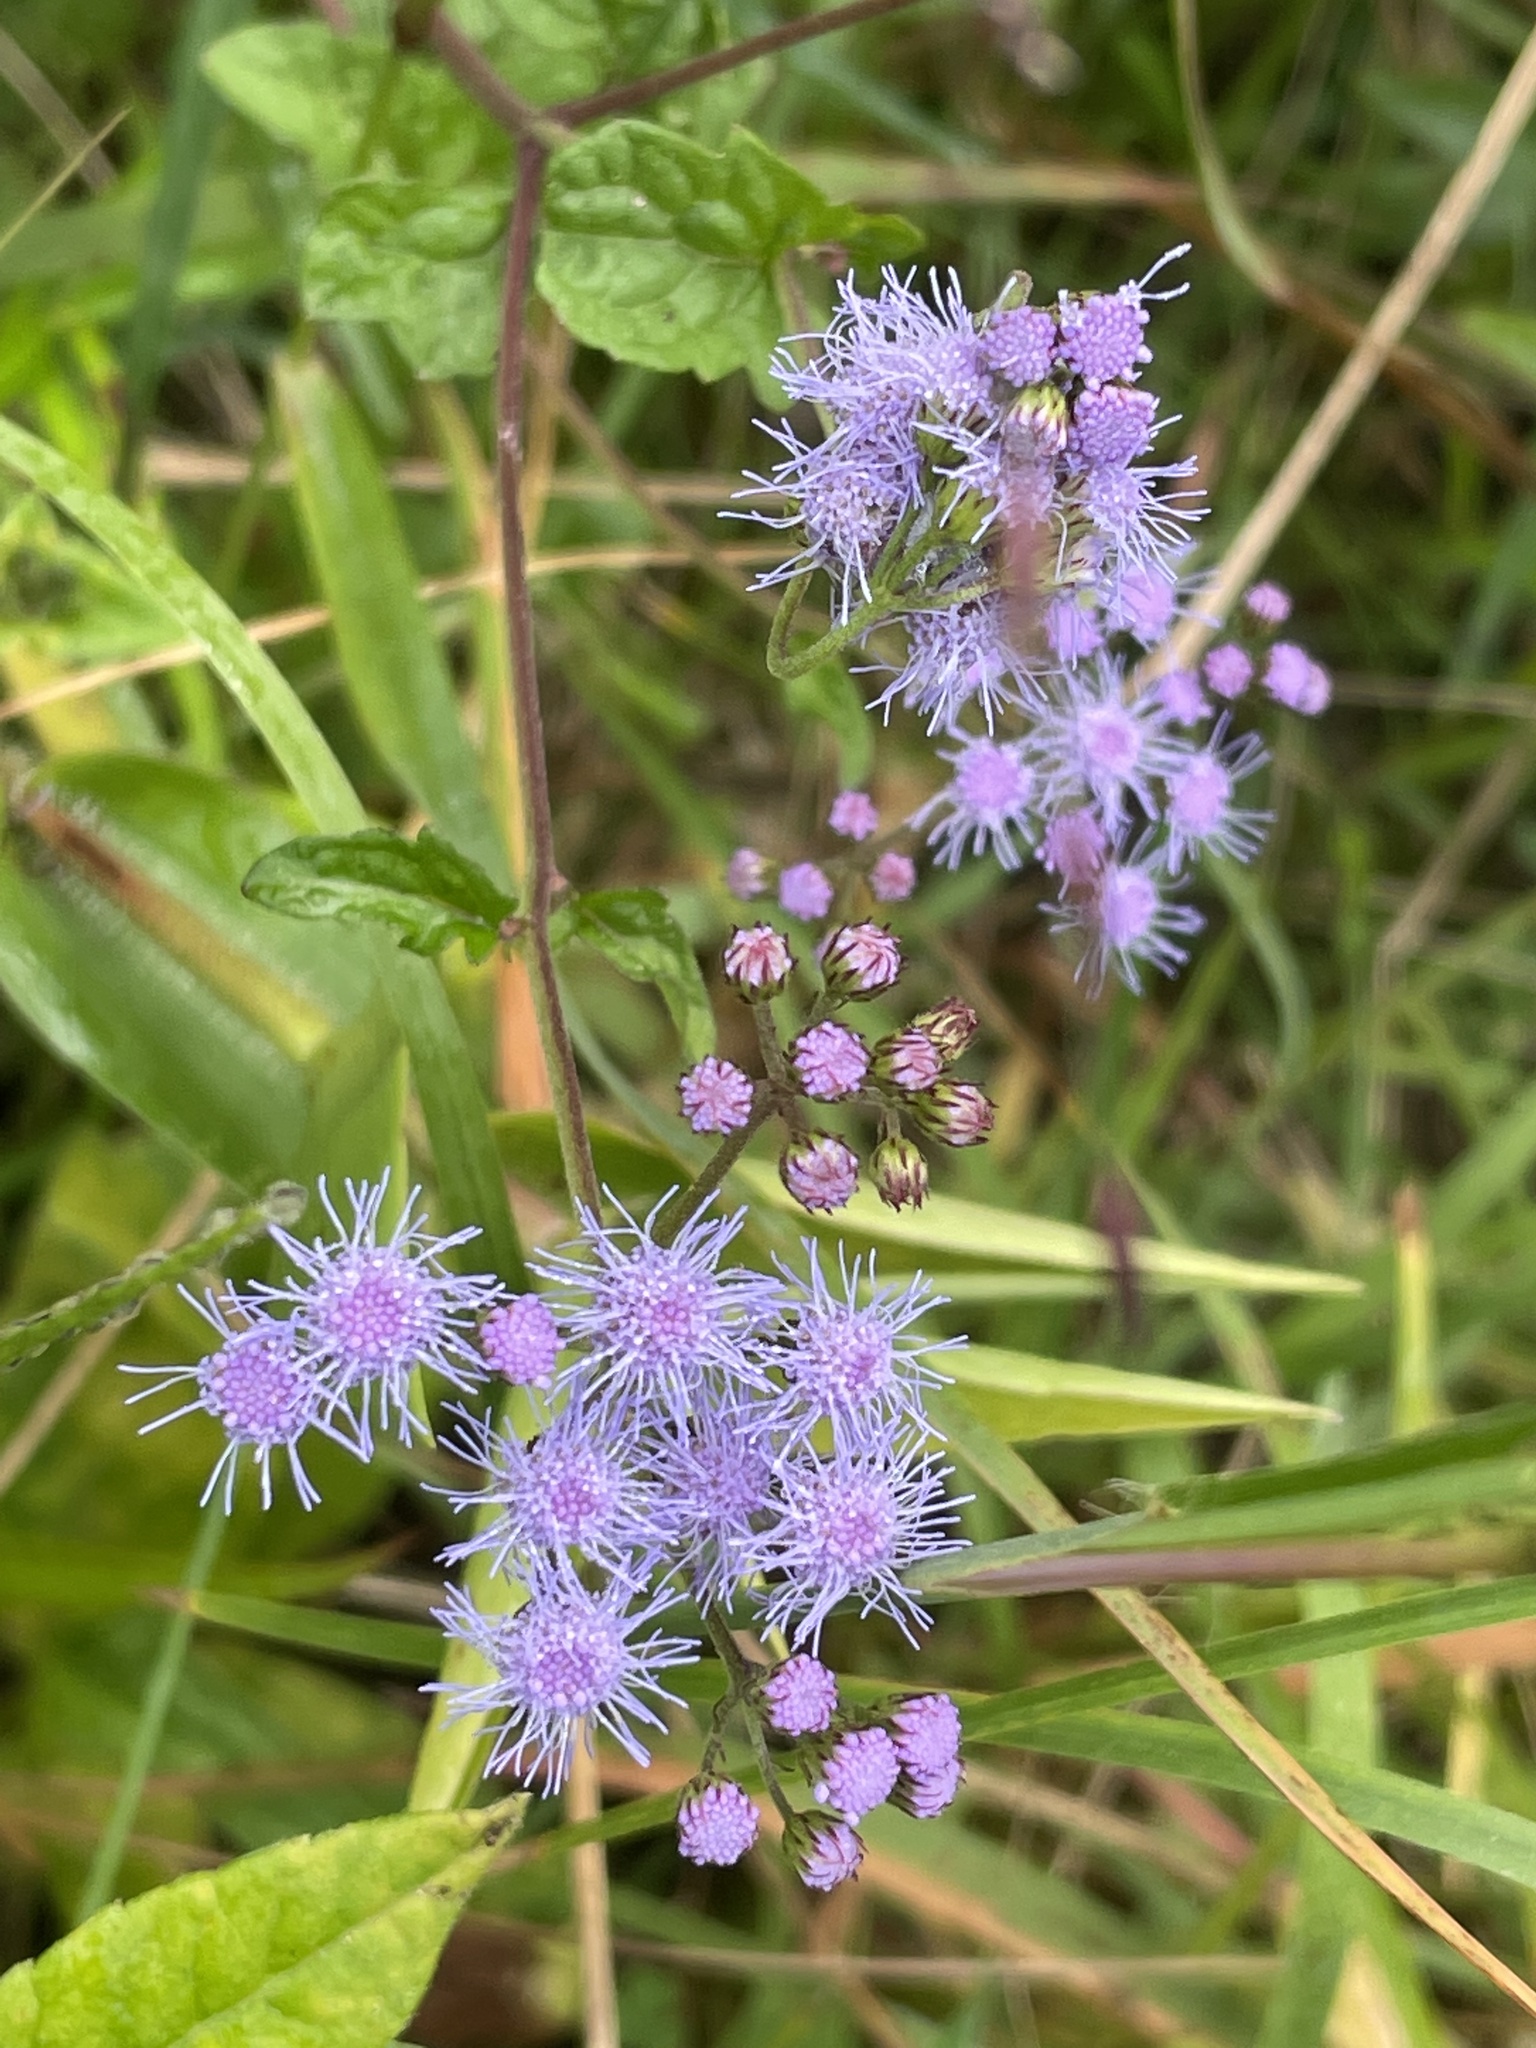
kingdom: Plantae
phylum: Tracheophyta
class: Magnoliopsida
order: Asterales
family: Asteraceae
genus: Conoclinium
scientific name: Conoclinium coelestinum
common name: Blue mistflower
